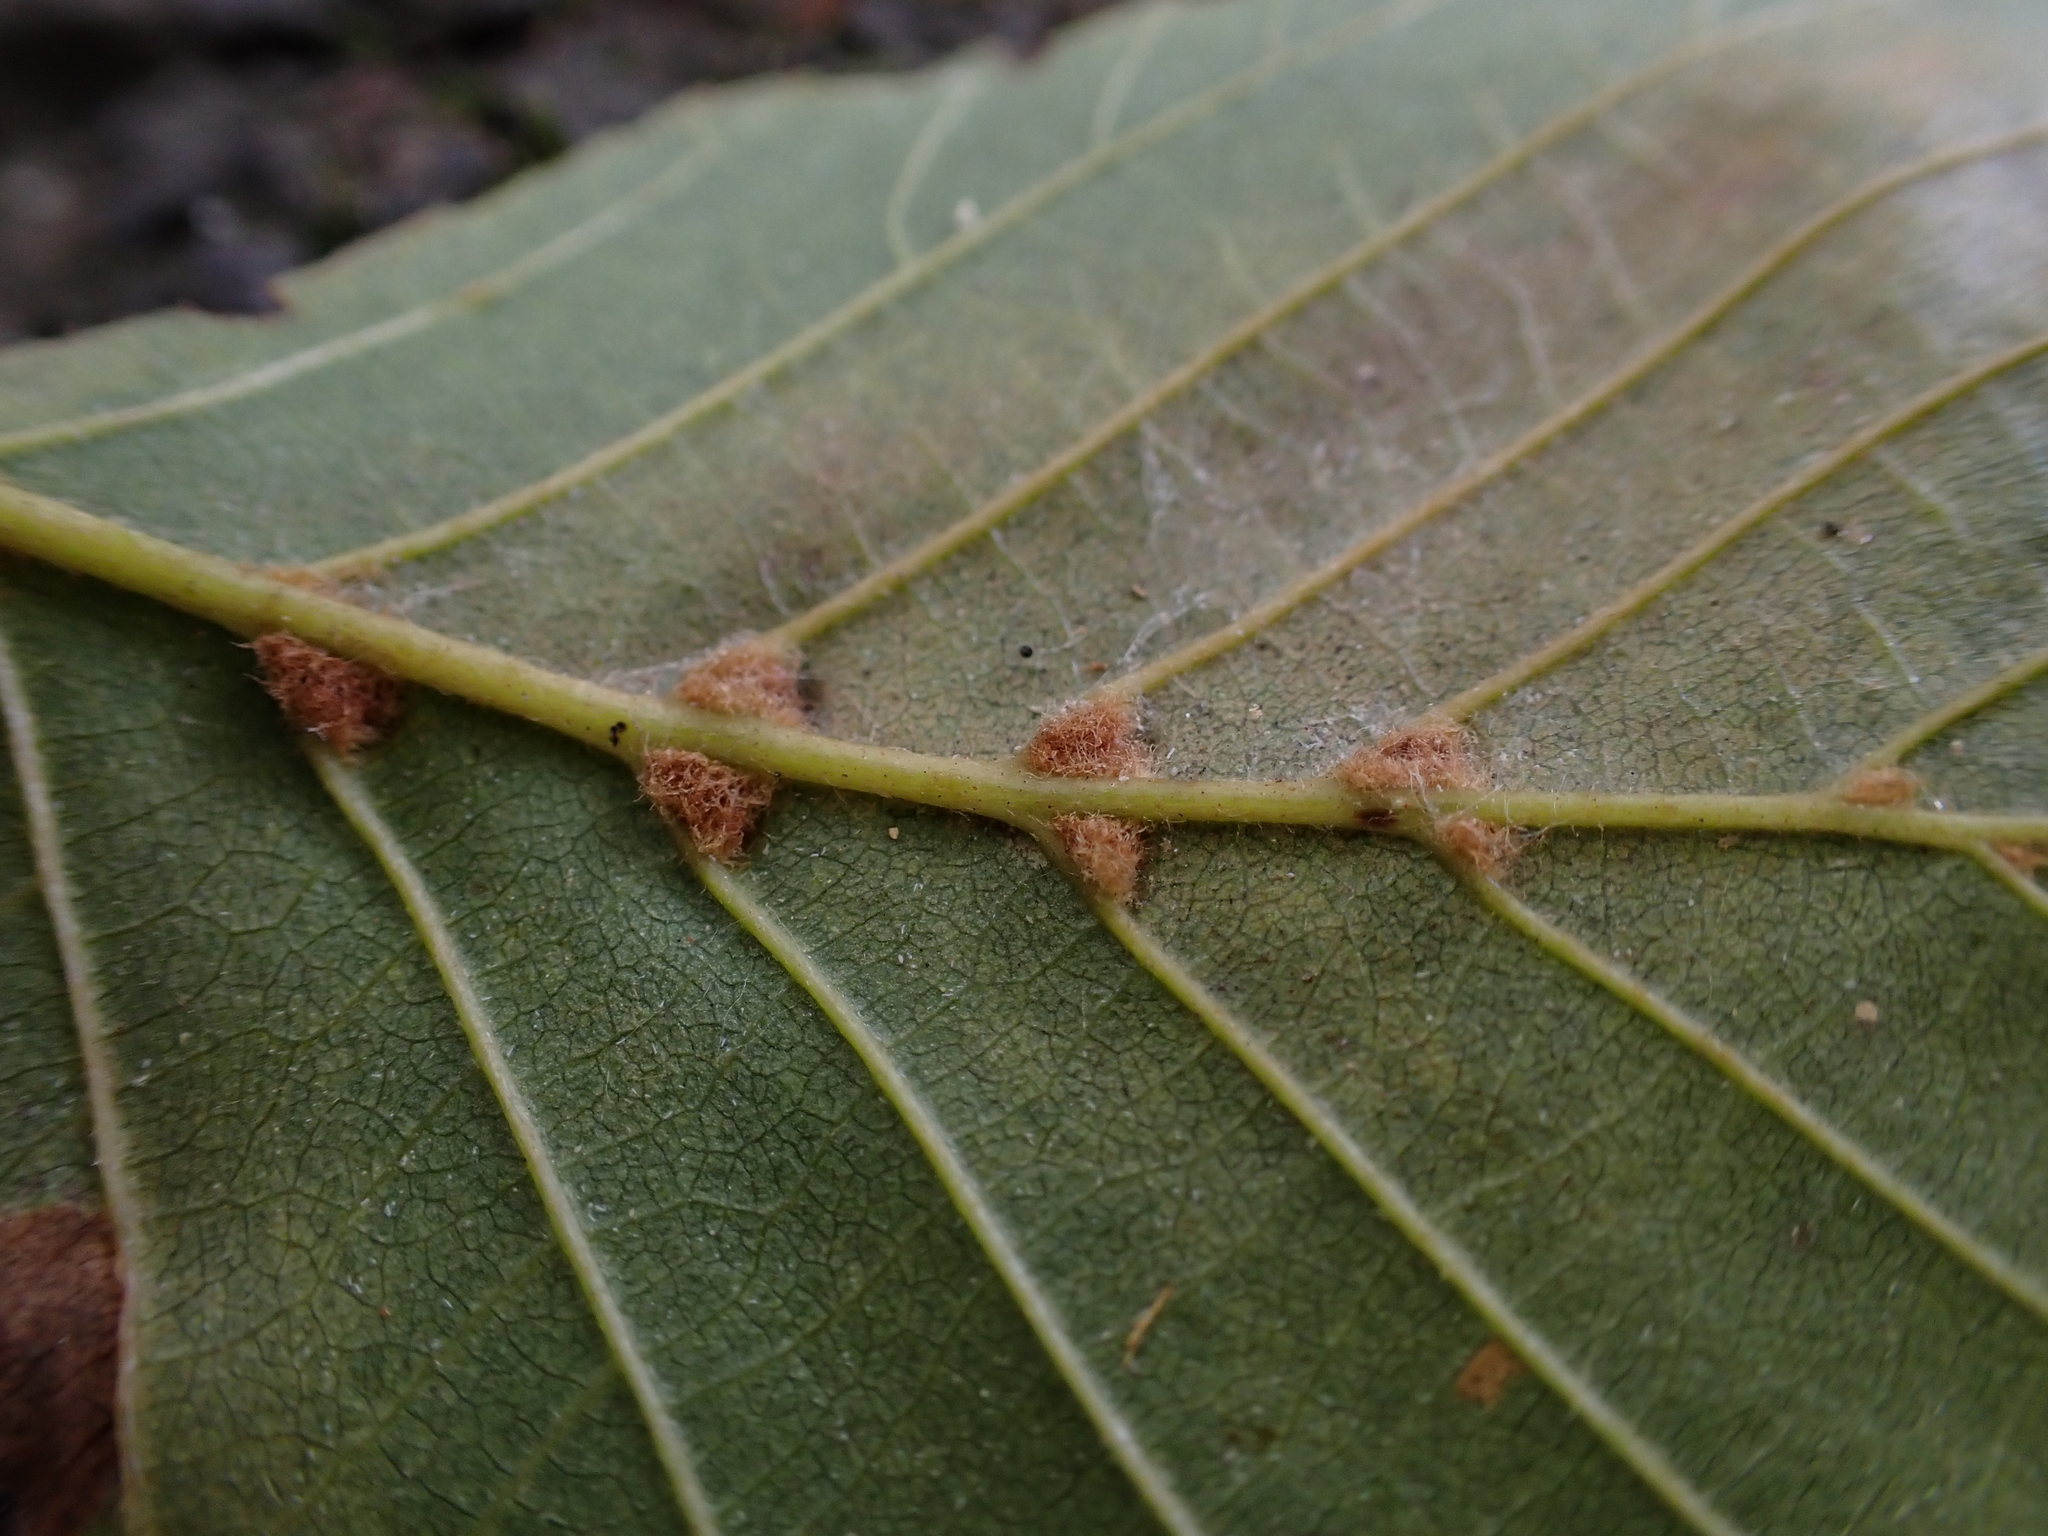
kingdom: Animalia
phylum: Arthropoda
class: Arachnida
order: Trombidiformes
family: Eriophyidae
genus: Eriophyes
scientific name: Eriophyes inangulis
